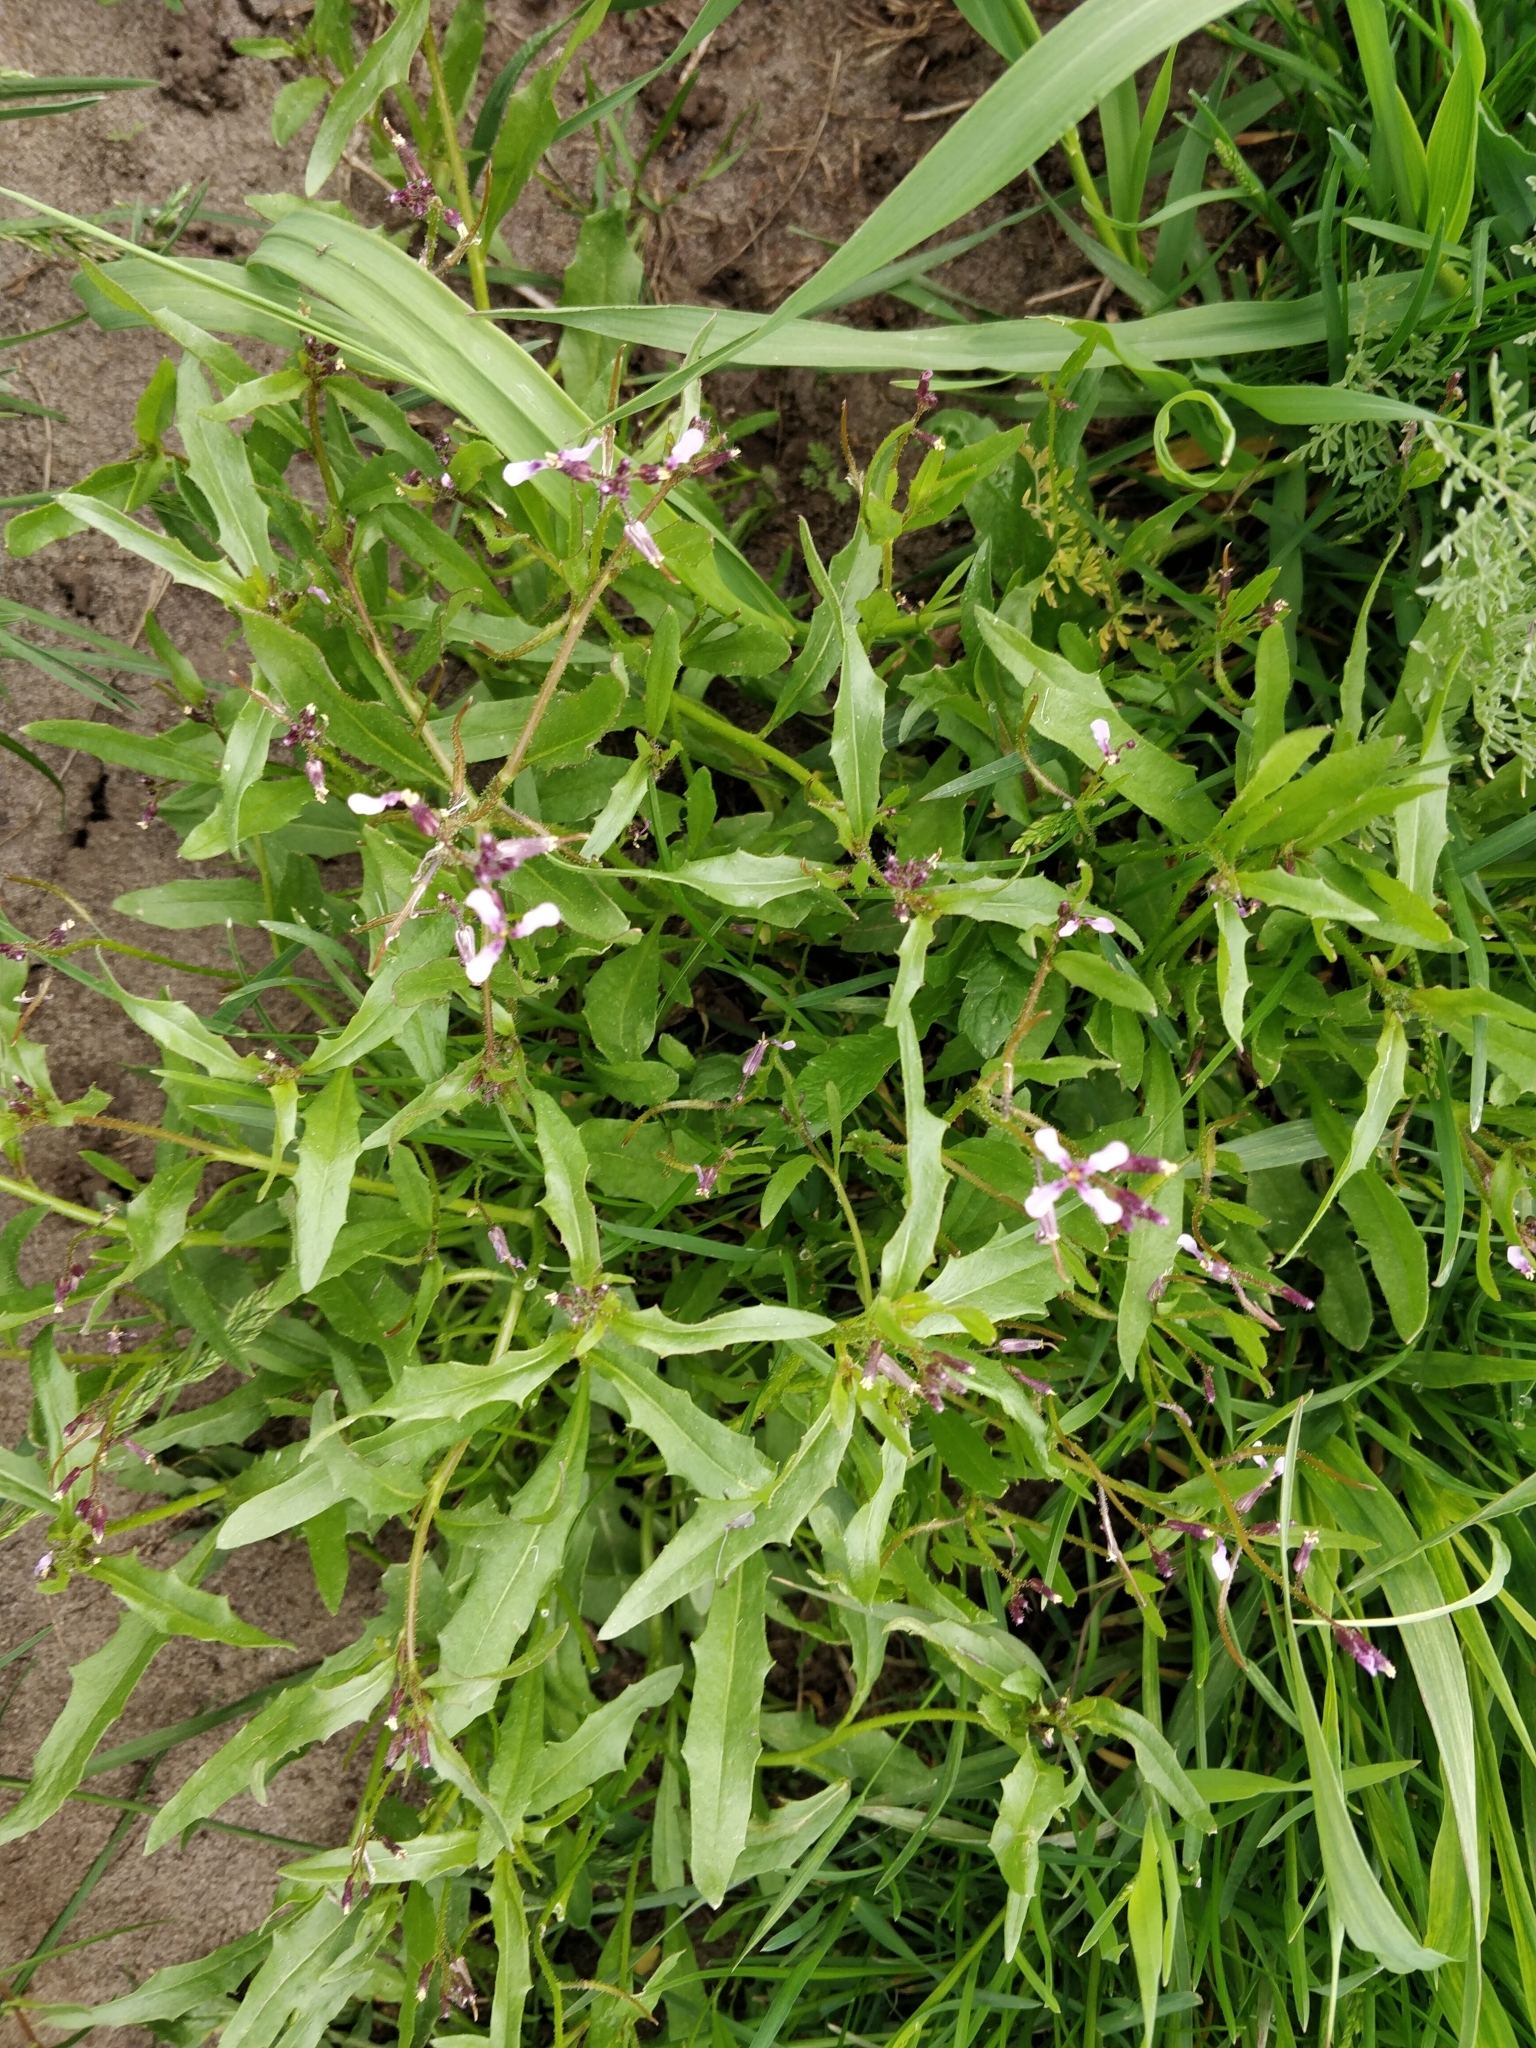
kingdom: Plantae
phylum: Tracheophyta
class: Magnoliopsida
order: Brassicales
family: Brassicaceae
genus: Chorispora
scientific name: Chorispora tenella
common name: Crossflower
